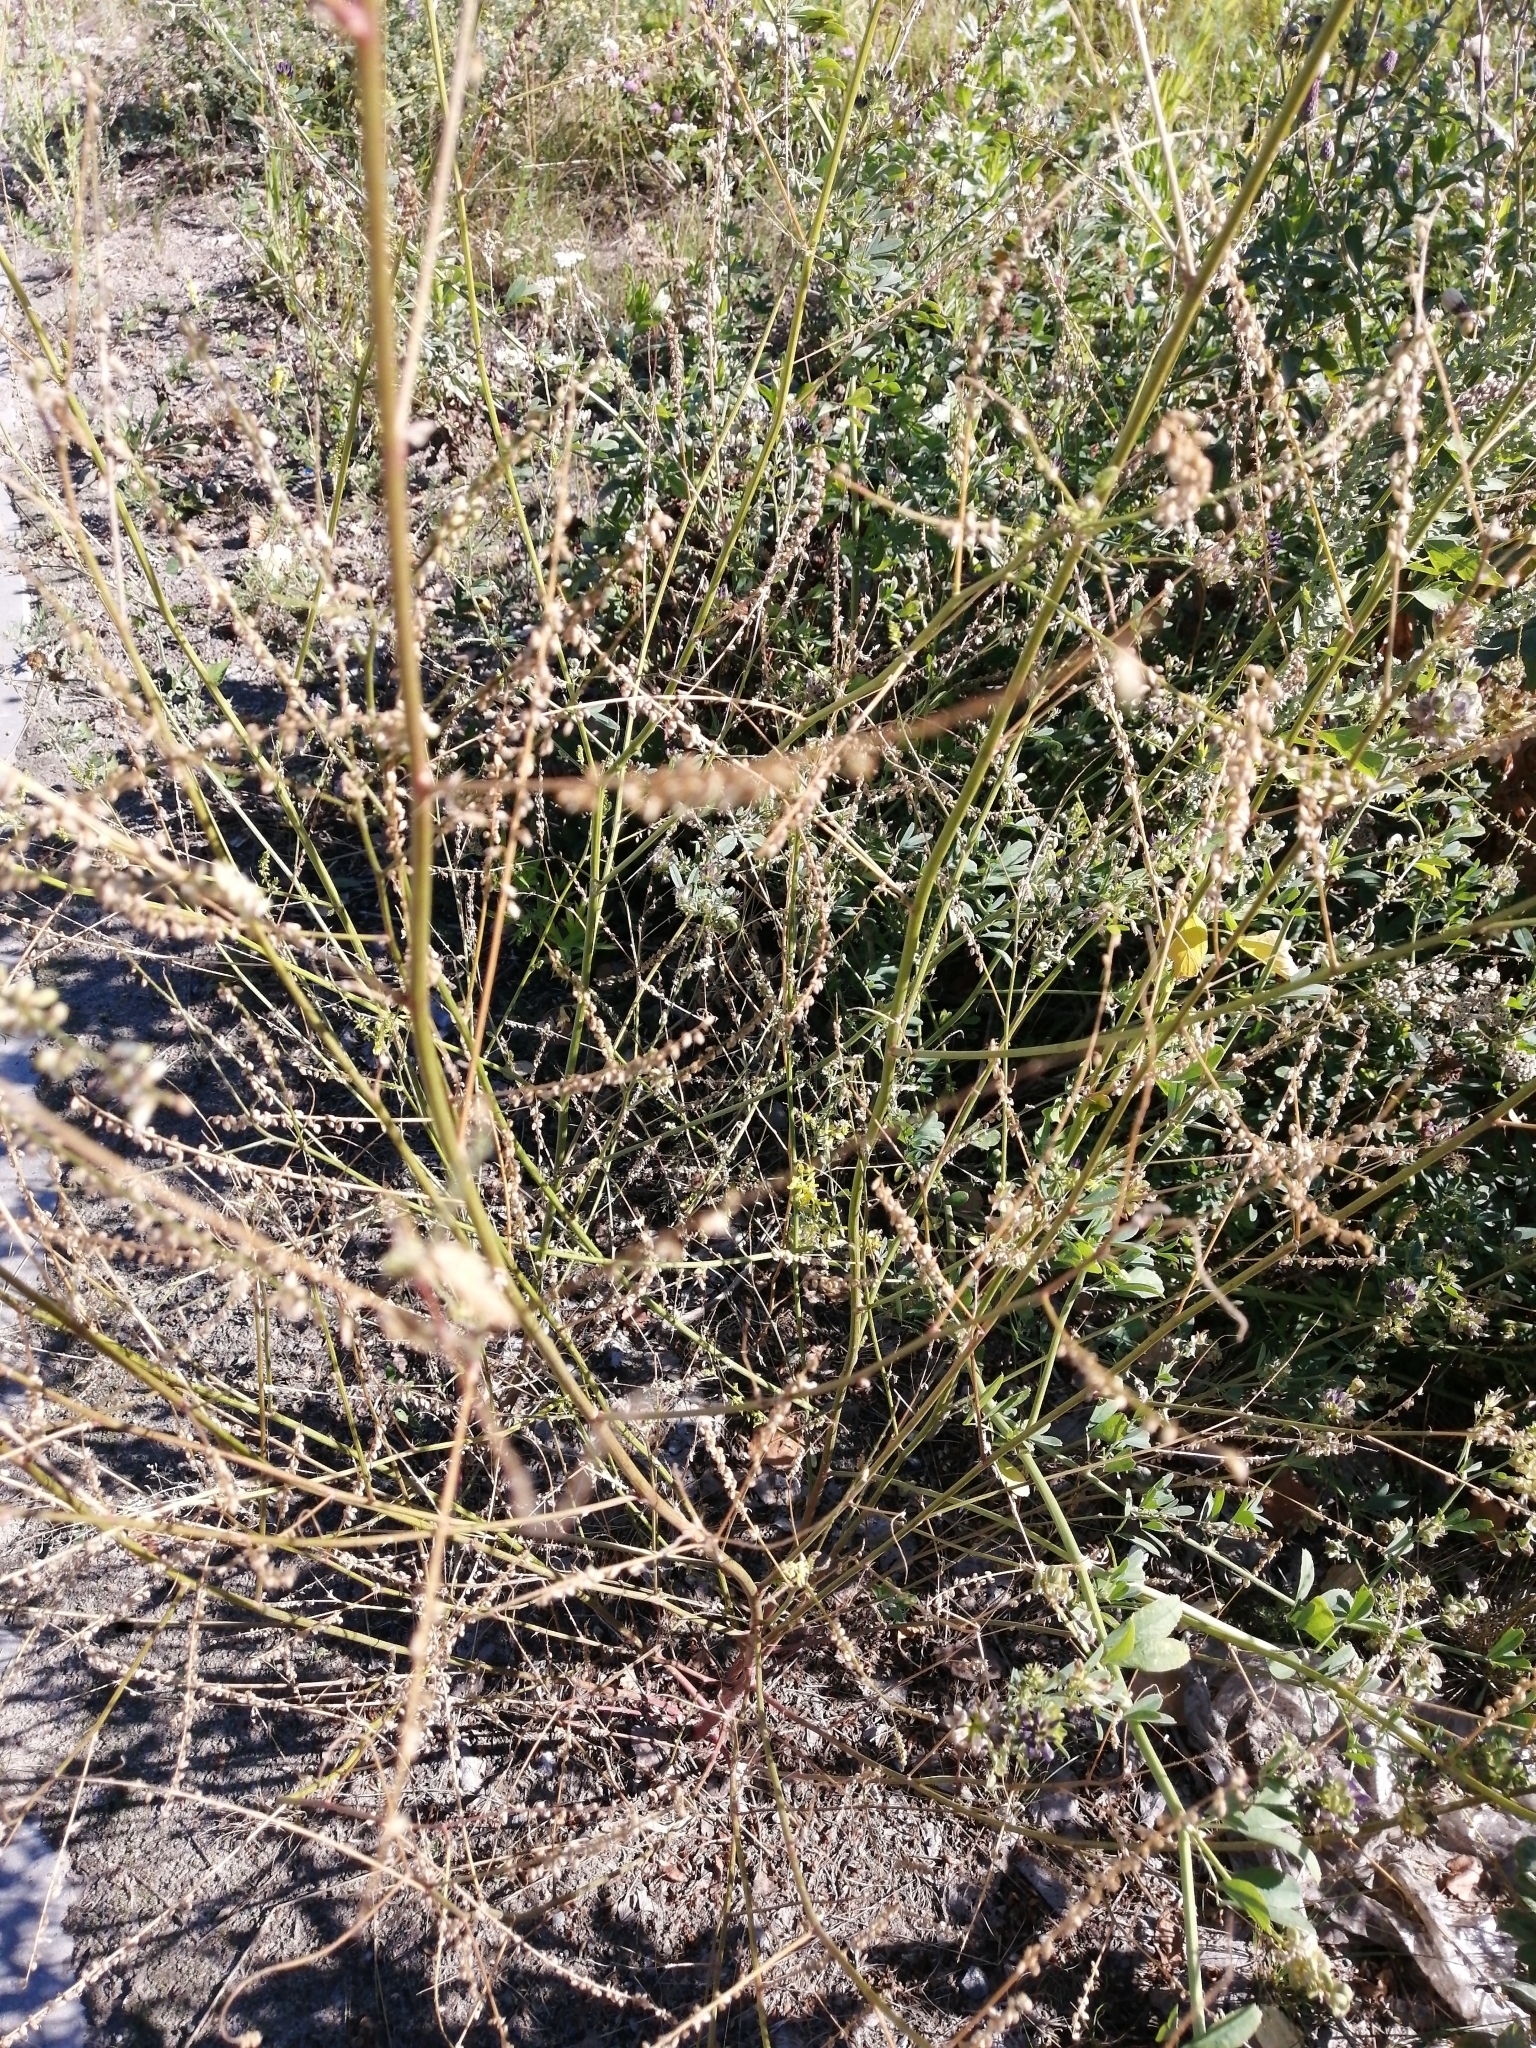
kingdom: Plantae
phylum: Tracheophyta
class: Magnoliopsida
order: Fabales
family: Fabaceae
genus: Melilotus
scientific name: Melilotus officinalis
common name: Sweetclover
